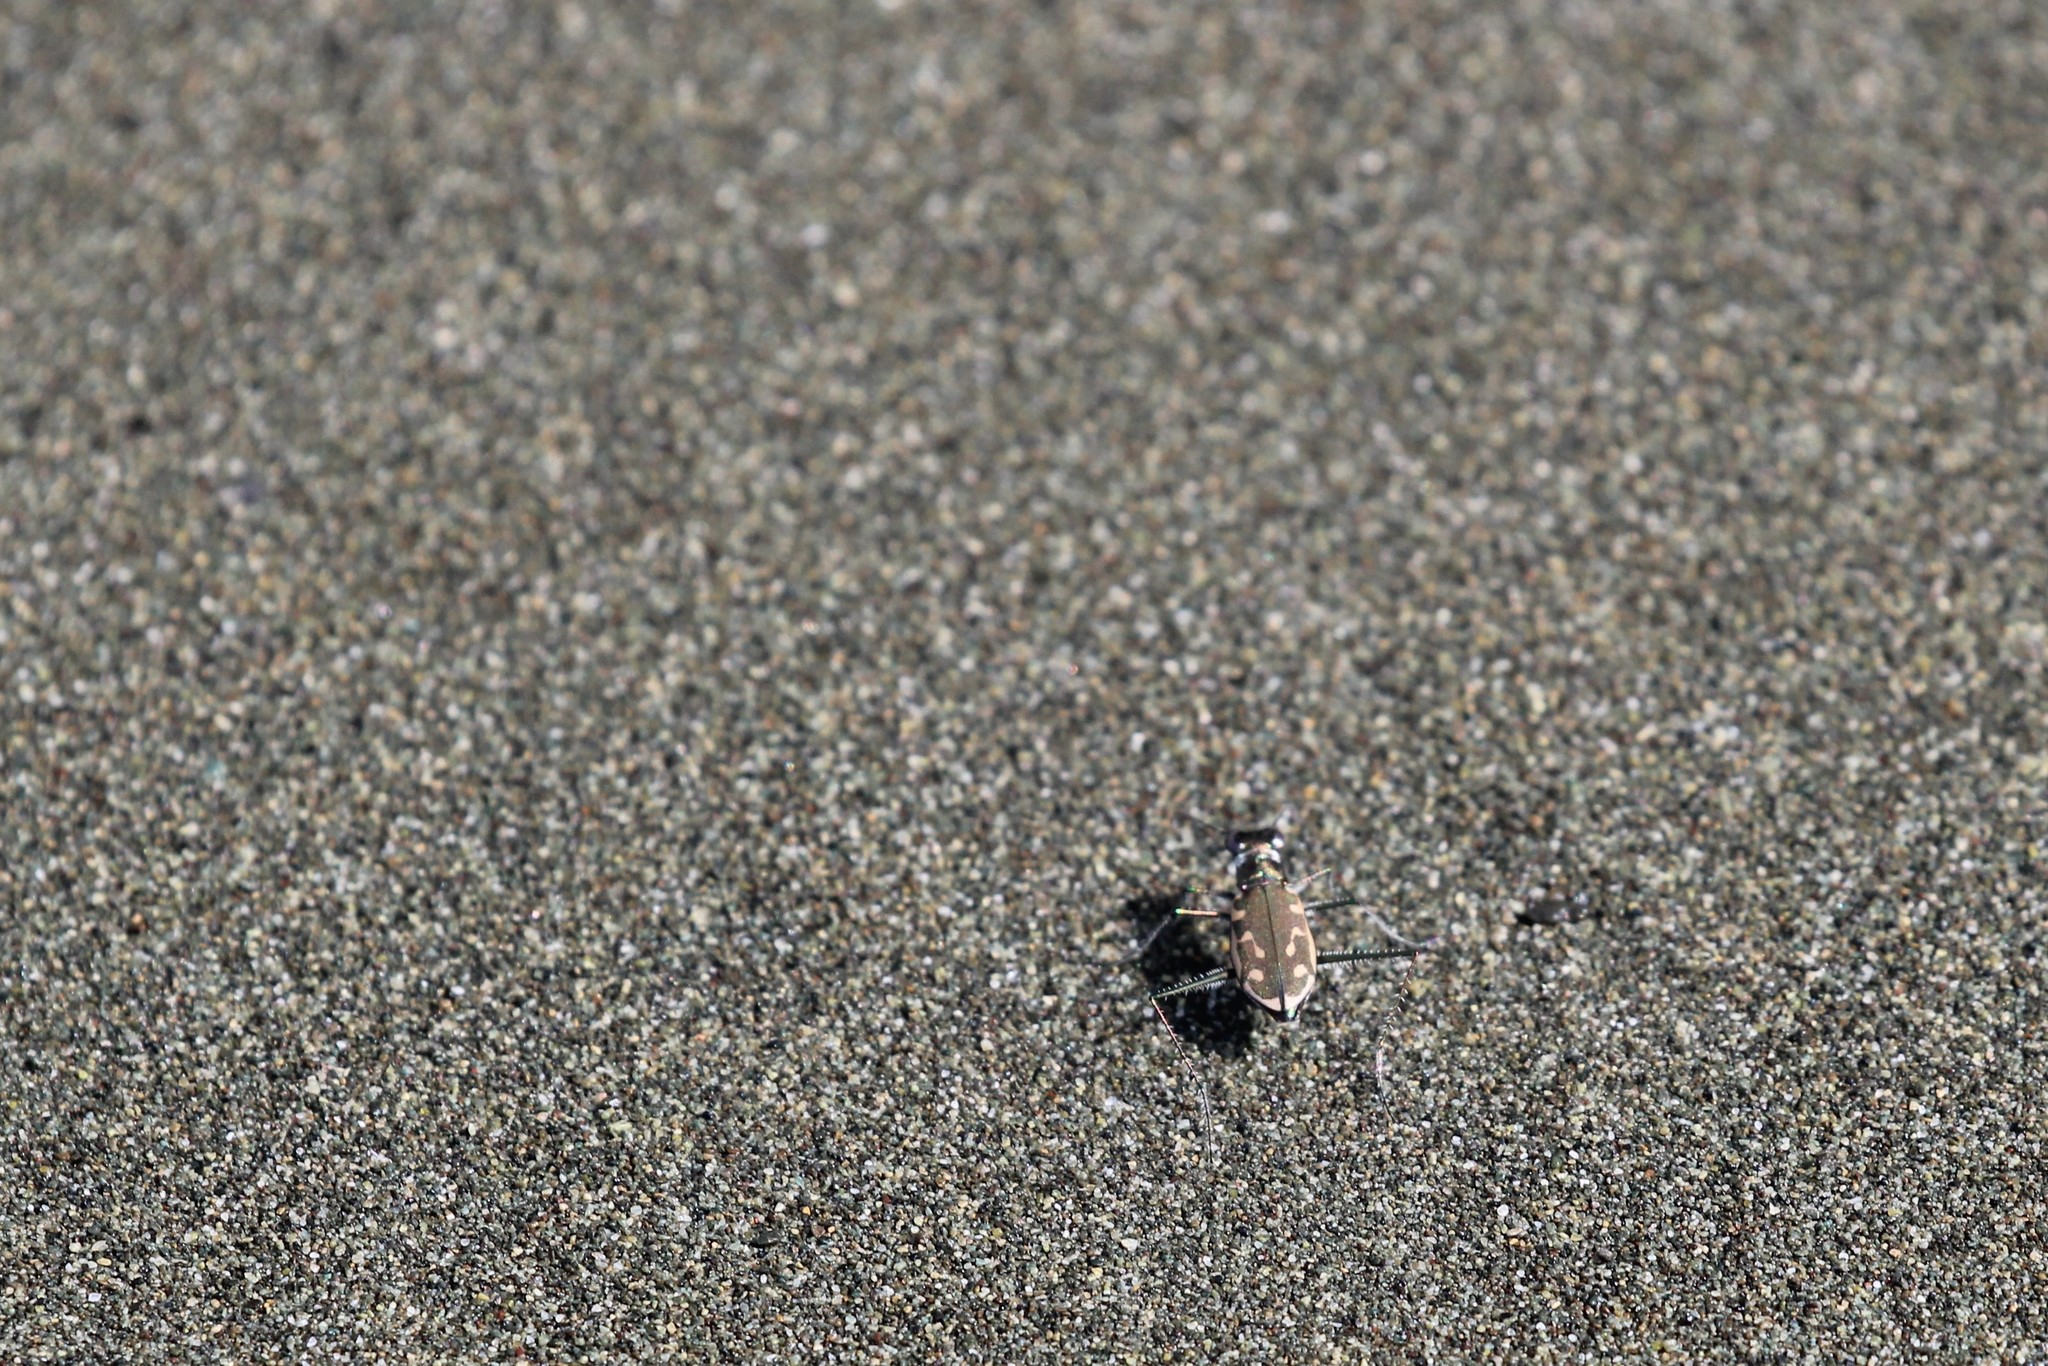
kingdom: Animalia
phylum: Arthropoda
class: Insecta
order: Coleoptera
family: Carabidae
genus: Opilidia
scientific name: Opilidia macrocnema
